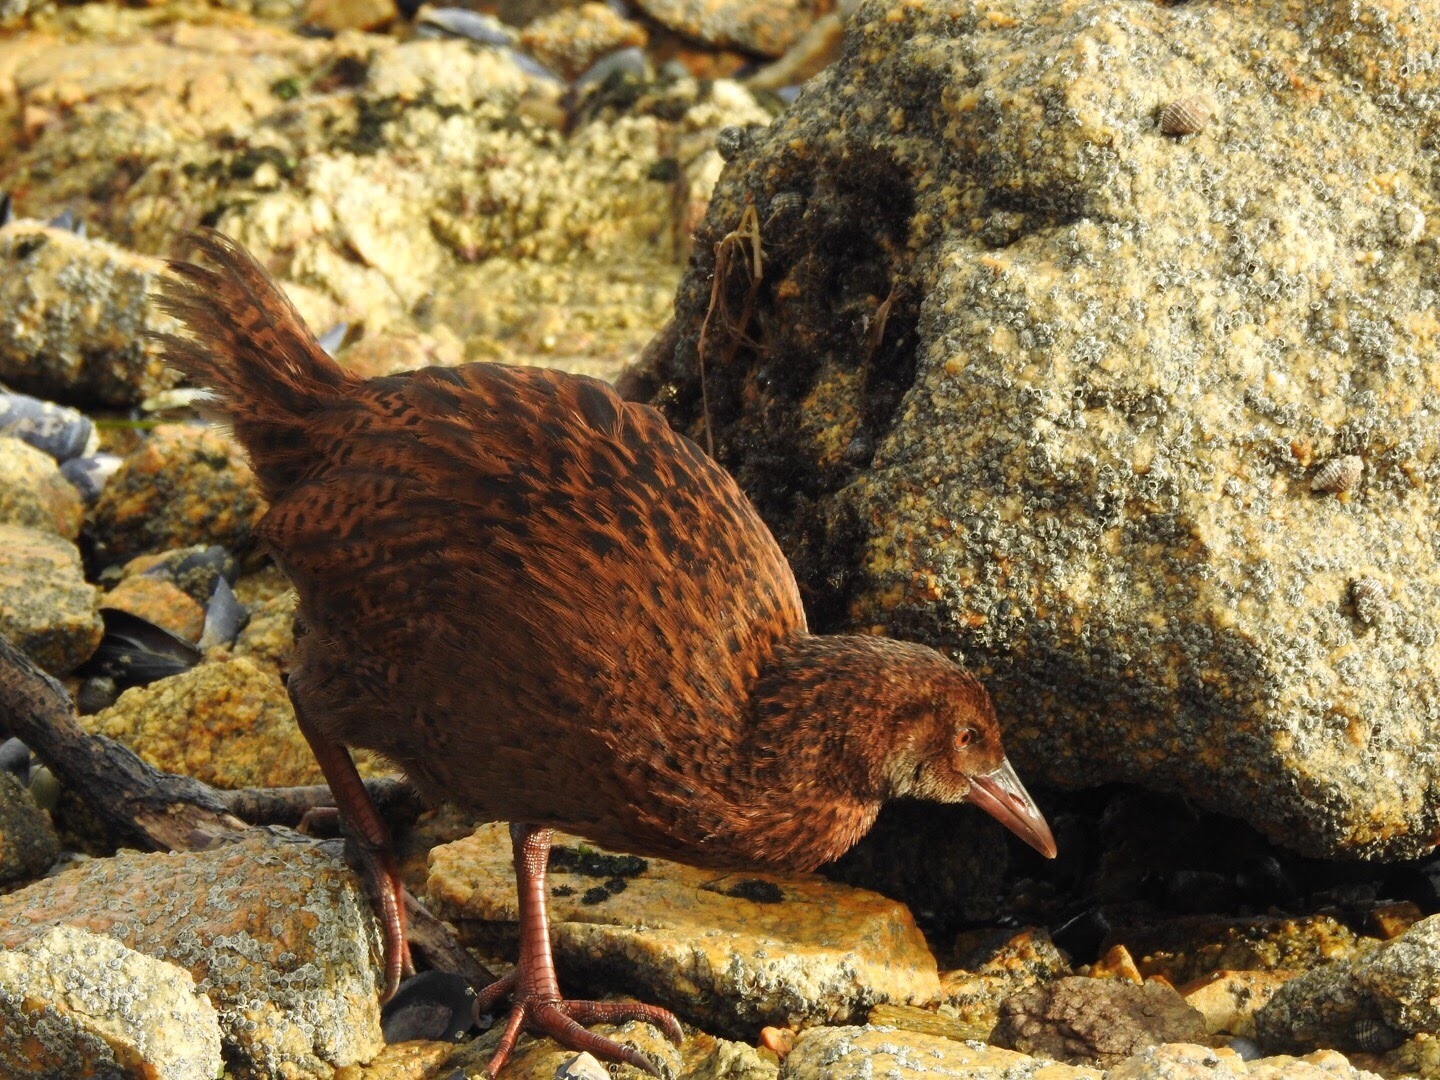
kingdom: Animalia
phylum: Chordata
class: Aves
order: Gruiformes
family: Rallidae
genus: Gallirallus
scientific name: Gallirallus australis
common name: Weka
